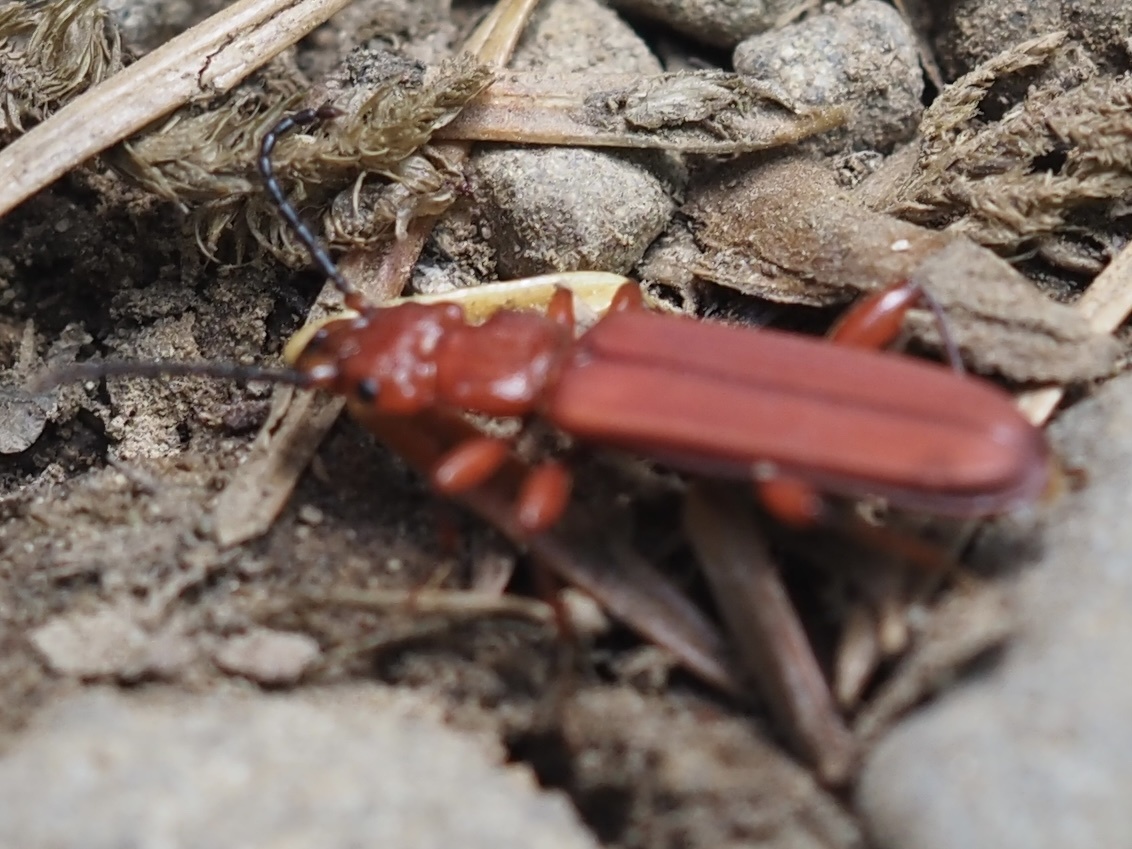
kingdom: Animalia
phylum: Arthropoda
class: Insecta
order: Coleoptera
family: Cucujidae
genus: Cucujus
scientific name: Cucujus clavipes
